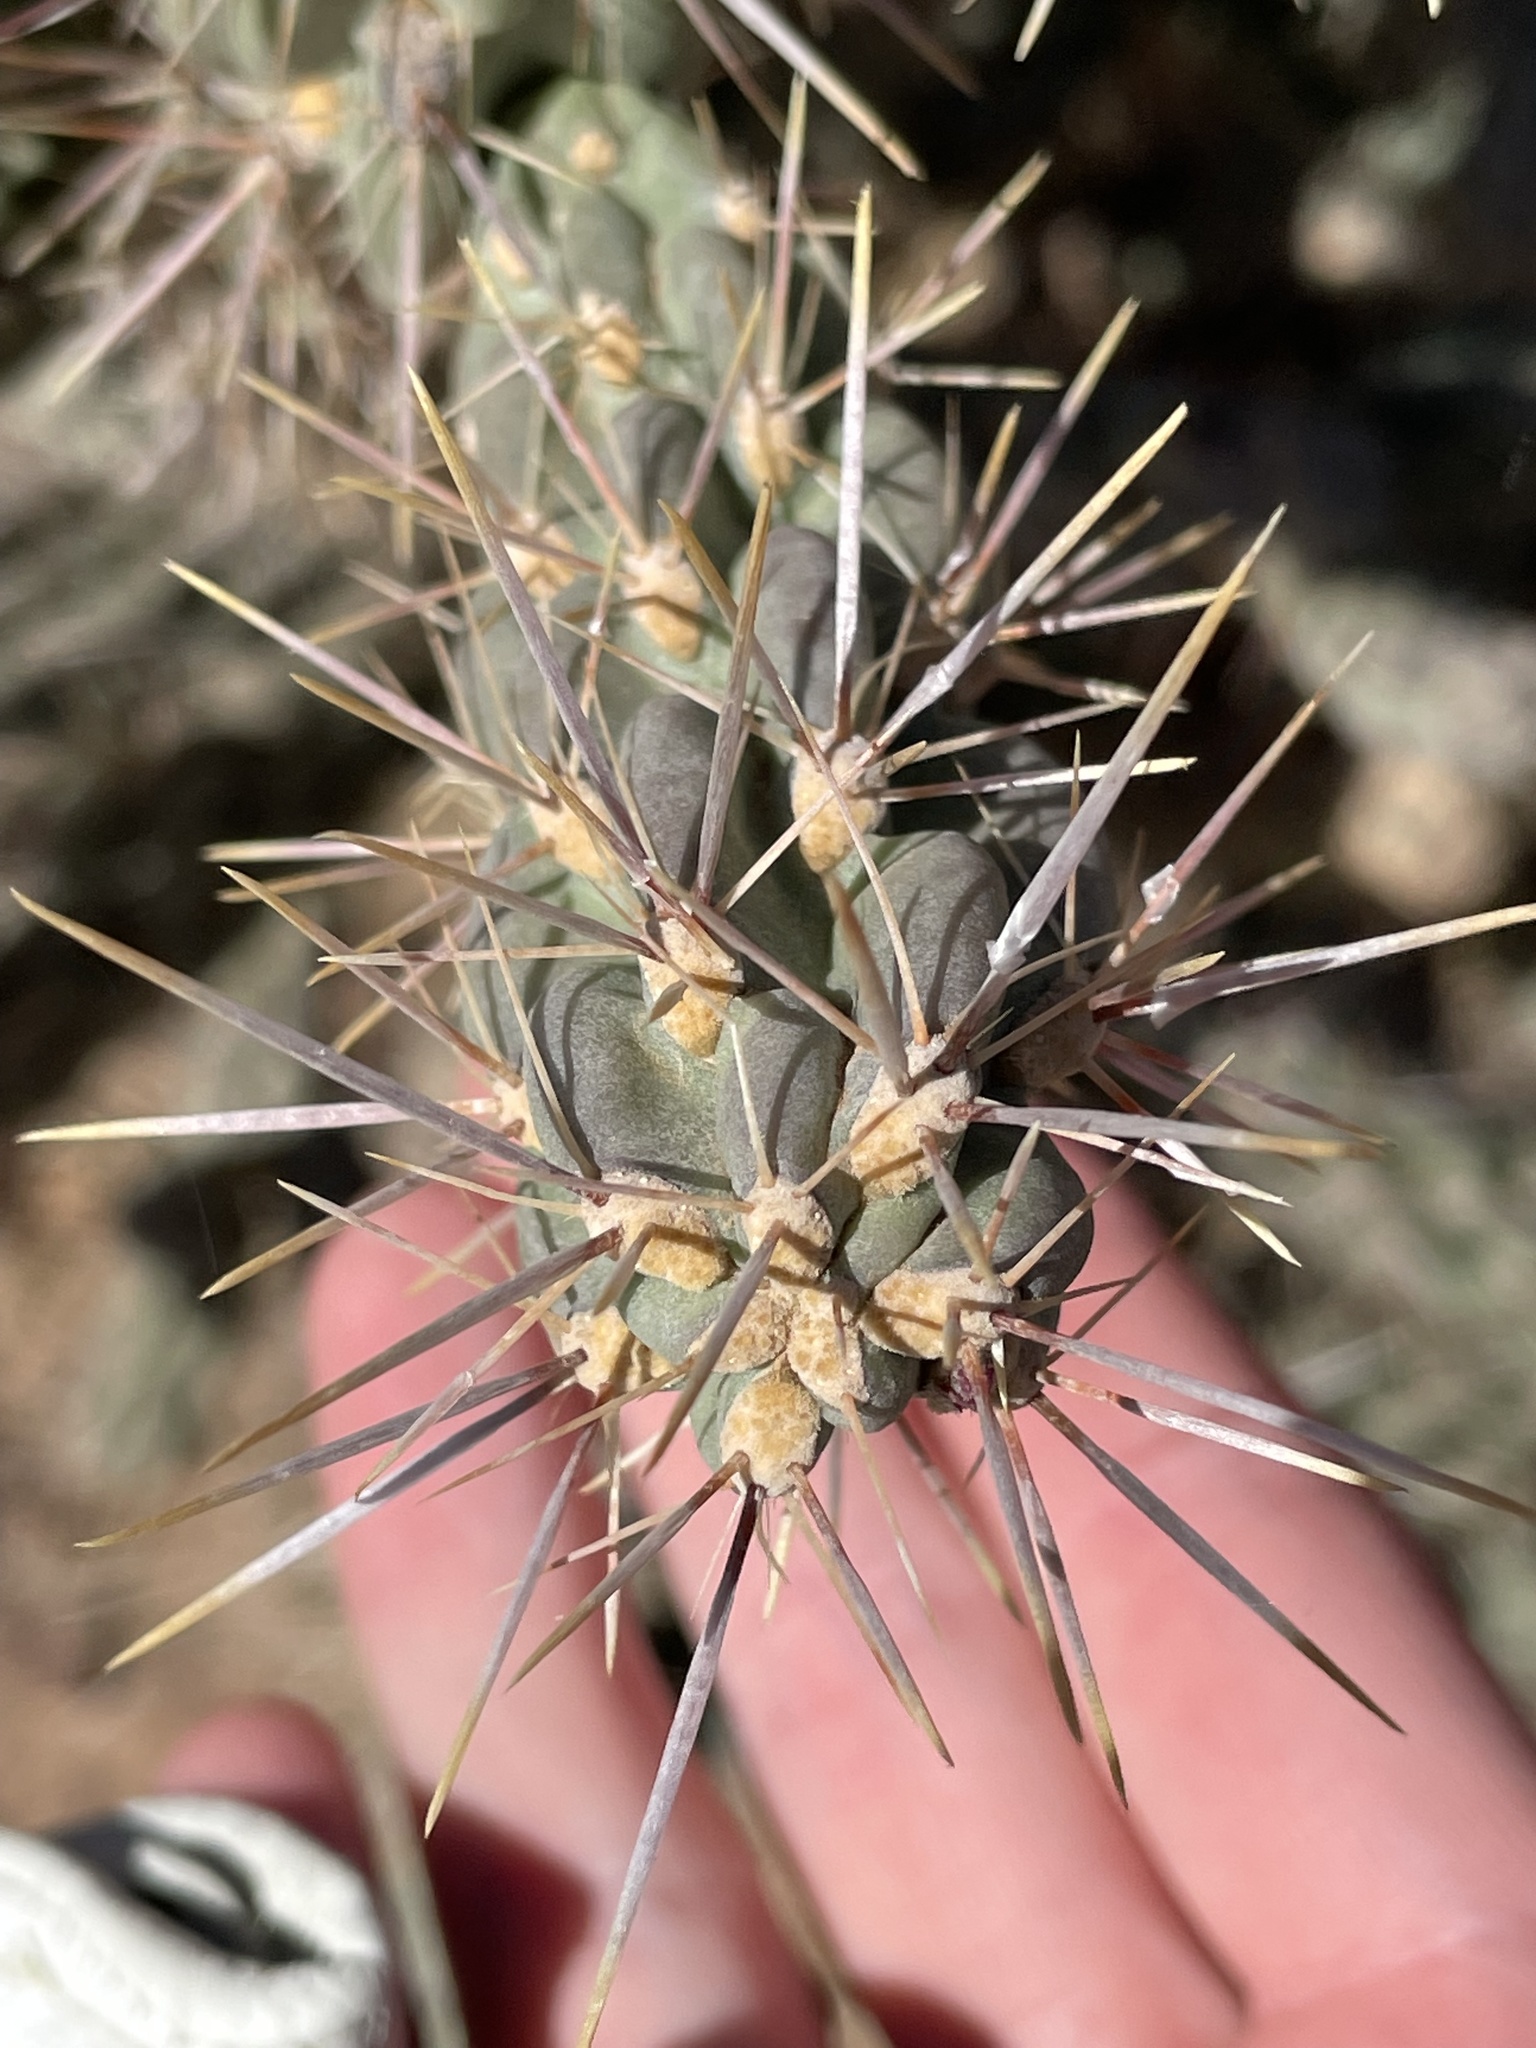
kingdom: Plantae
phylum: Tracheophyta
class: Magnoliopsida
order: Caryophyllales
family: Cactaceae
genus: Cylindropuntia
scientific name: Cylindropuntia imbricata
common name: Candelabrum cactus
